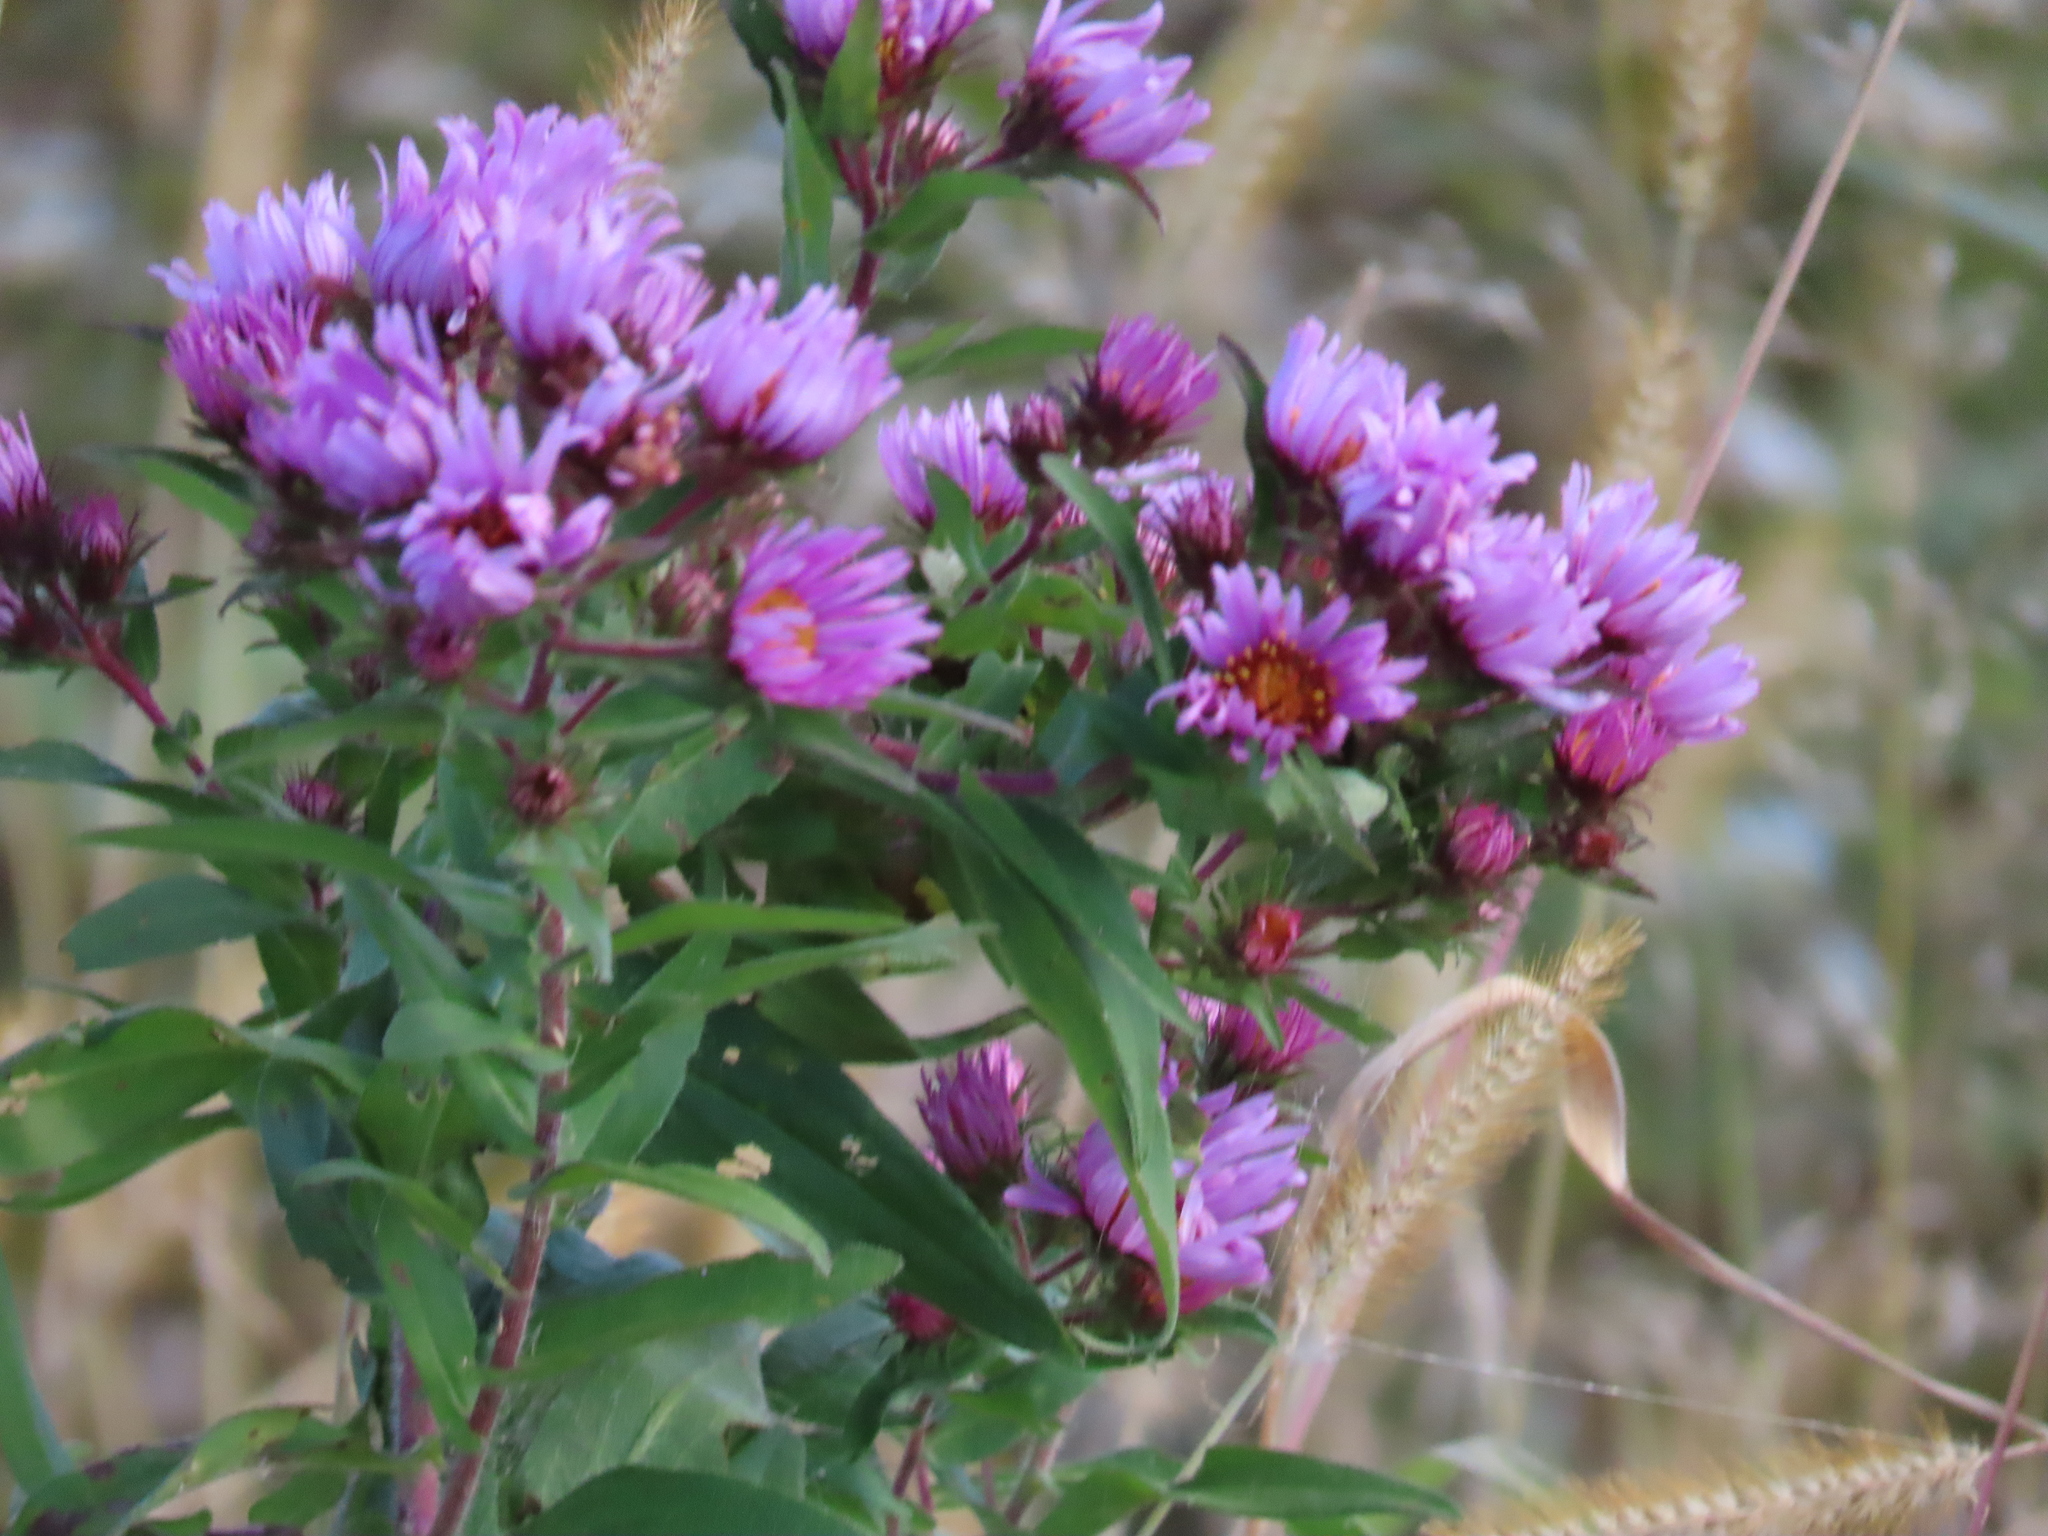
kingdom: Plantae
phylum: Tracheophyta
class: Magnoliopsida
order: Asterales
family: Asteraceae
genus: Symphyotrichum
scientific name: Symphyotrichum novae-angliae
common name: Michaelmas daisy
